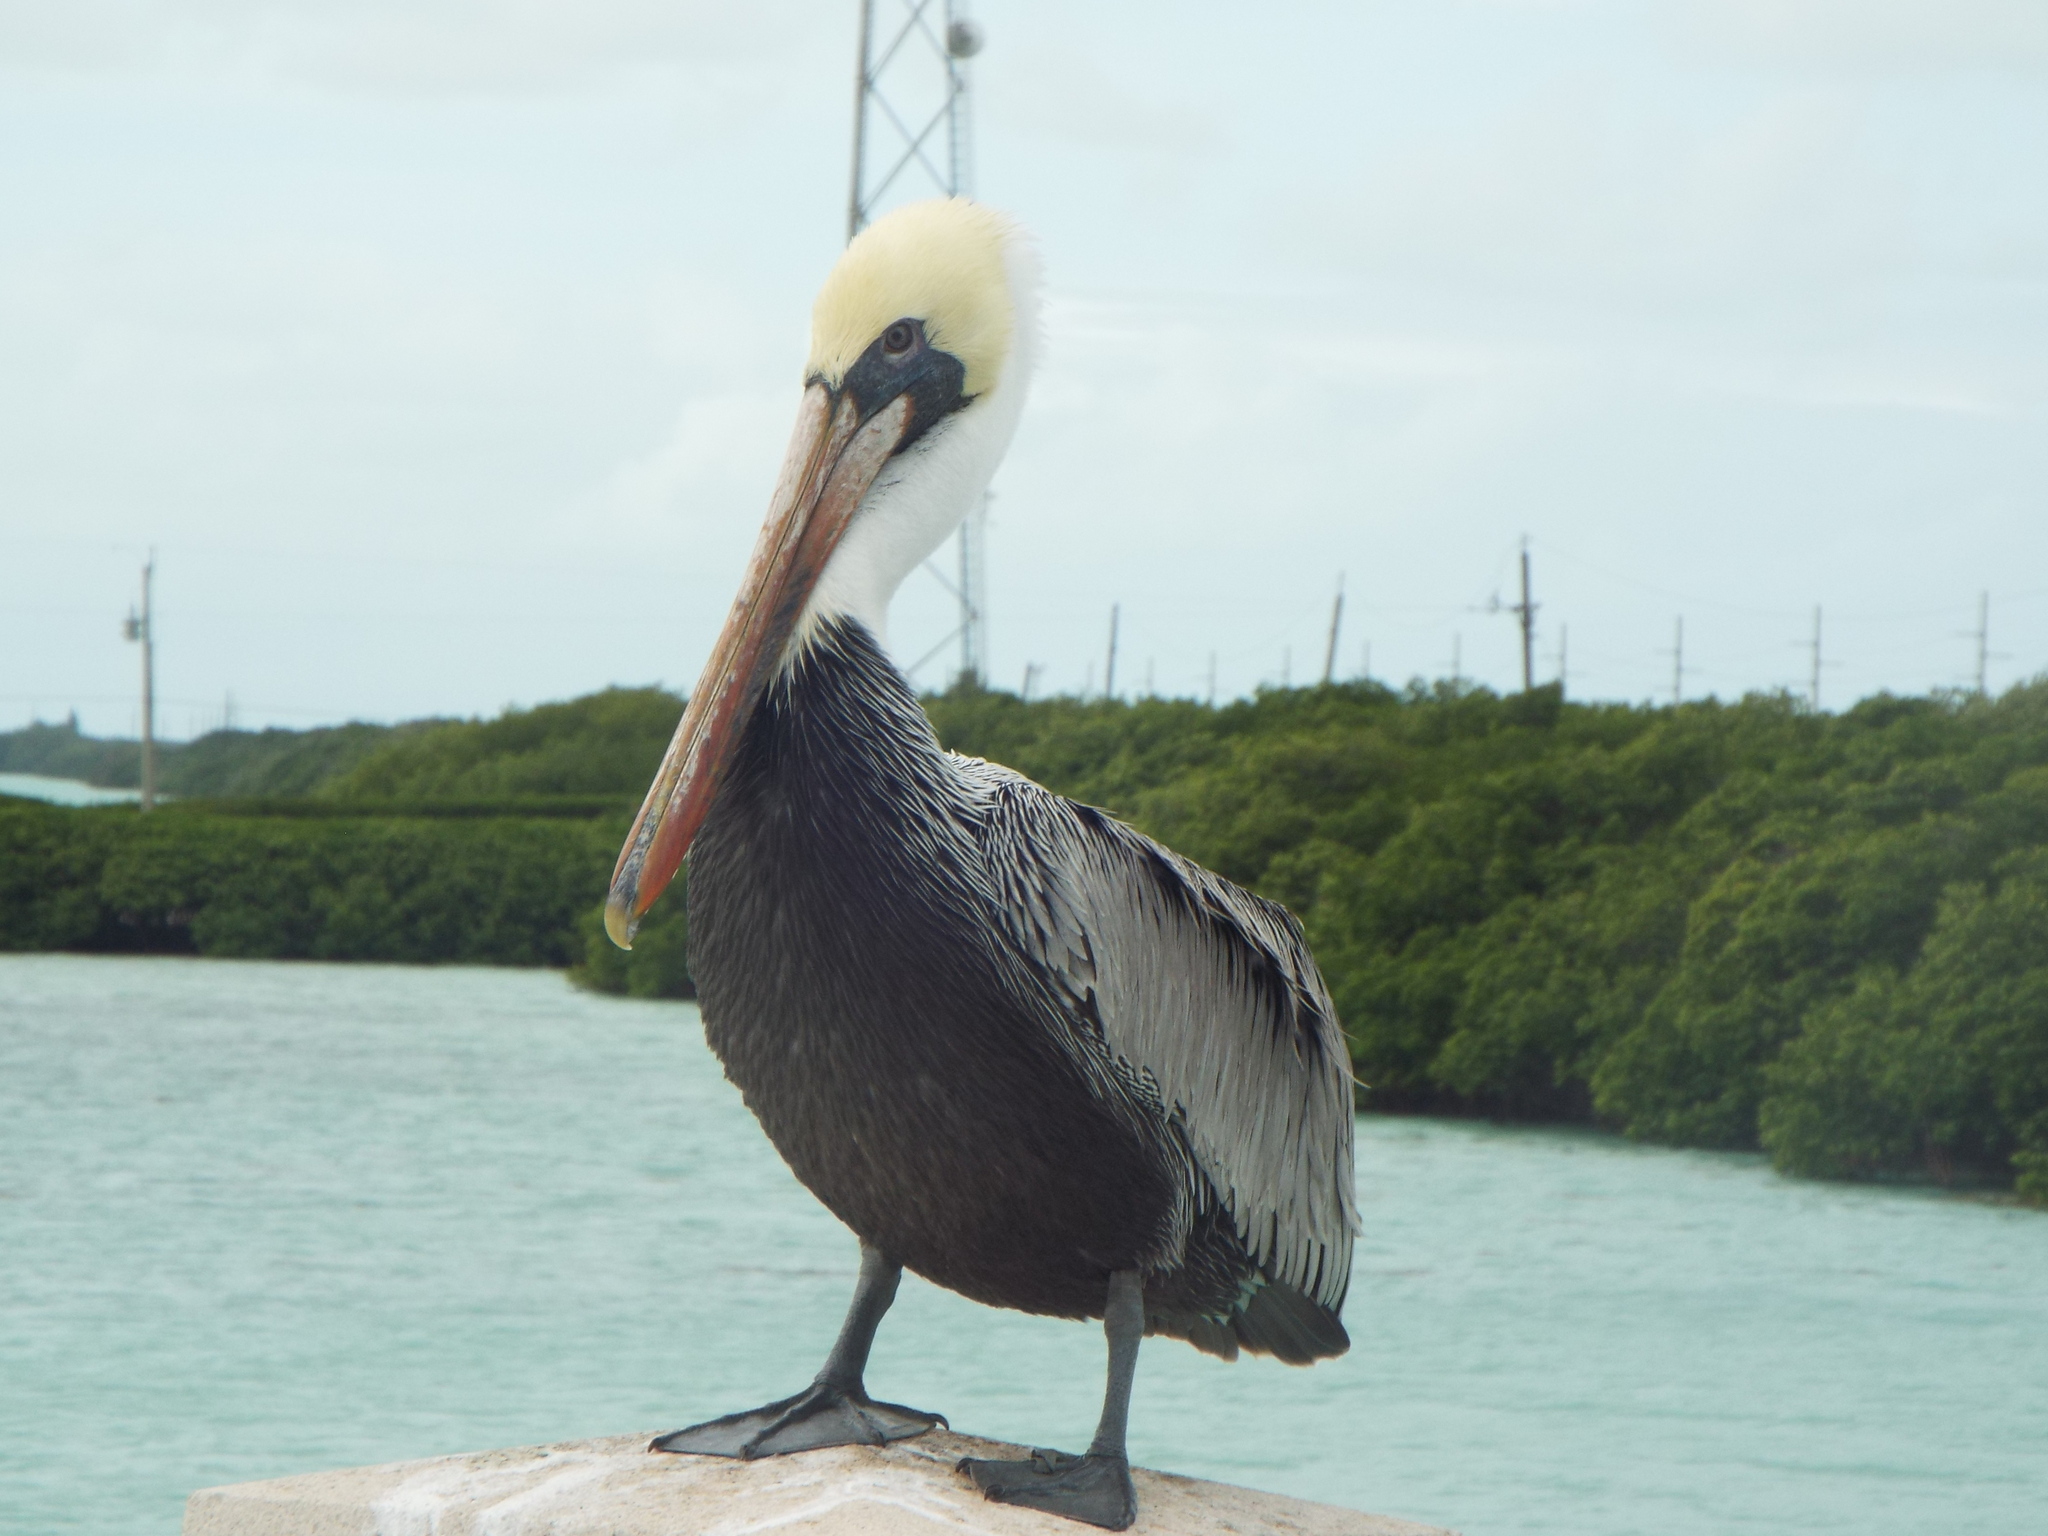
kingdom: Animalia
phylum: Chordata
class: Aves
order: Pelecaniformes
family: Pelecanidae
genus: Pelecanus
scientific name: Pelecanus occidentalis
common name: Brown pelican
